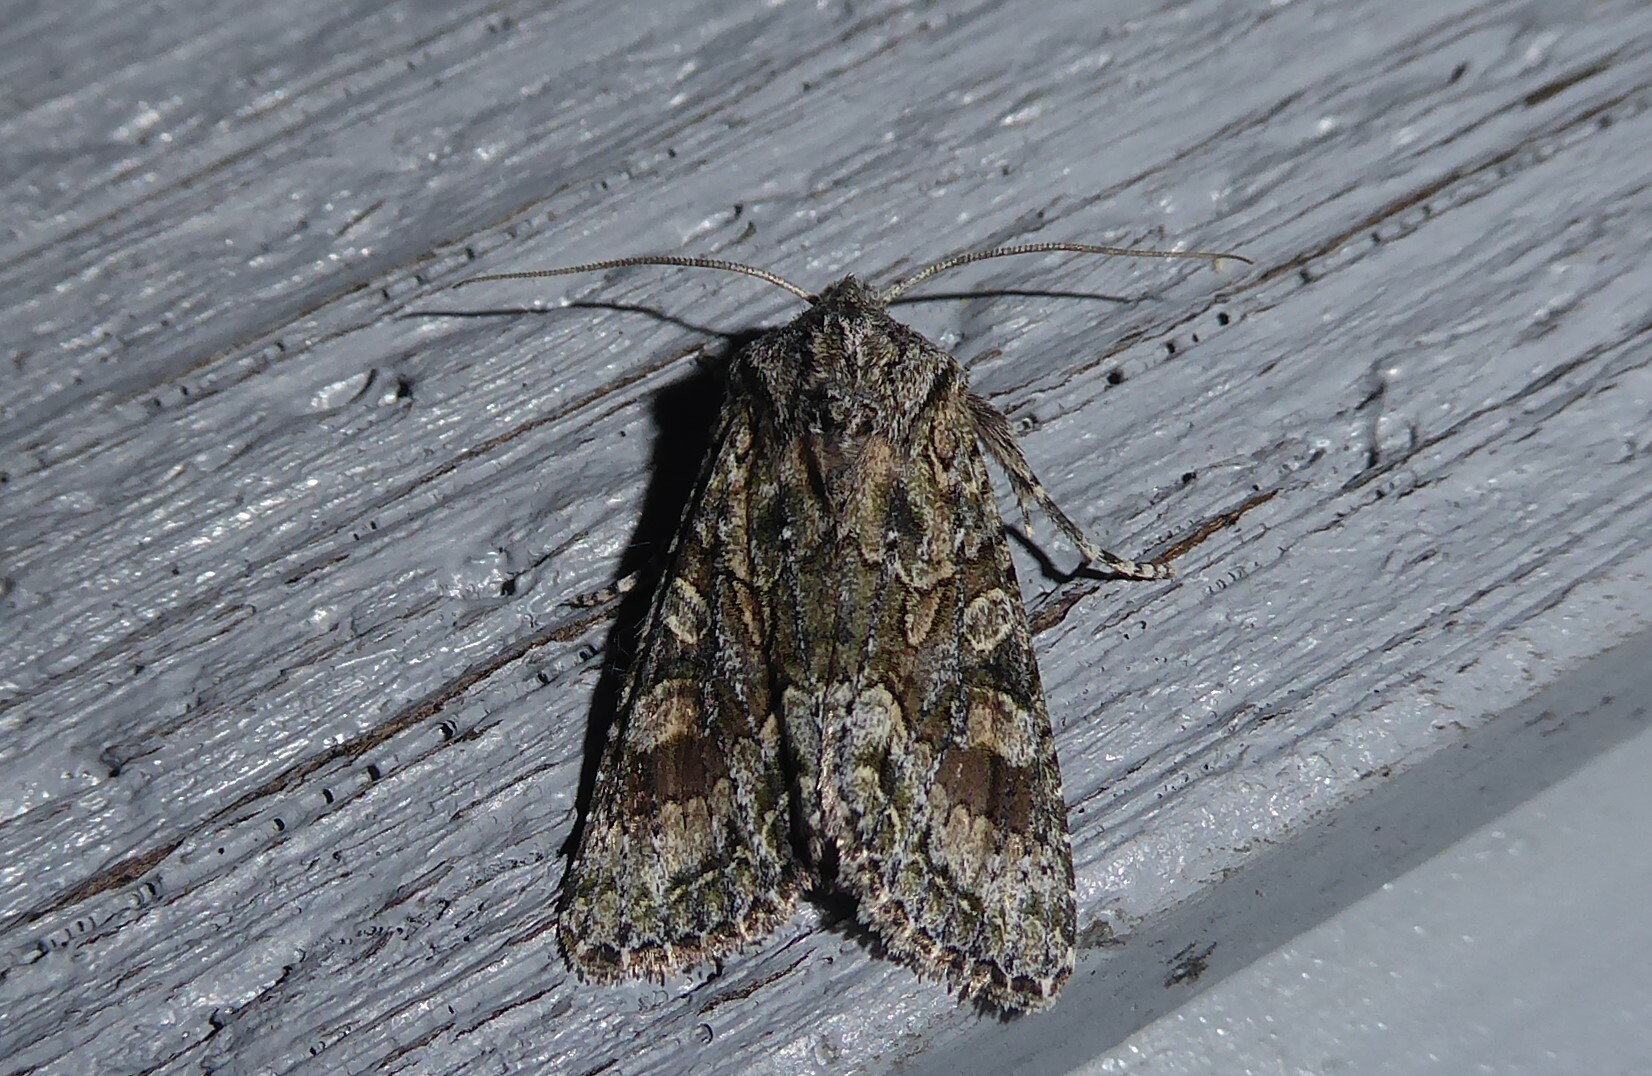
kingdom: Animalia
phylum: Arthropoda
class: Insecta
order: Lepidoptera
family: Noctuidae
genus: Ichneutica
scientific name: Ichneutica mutans
